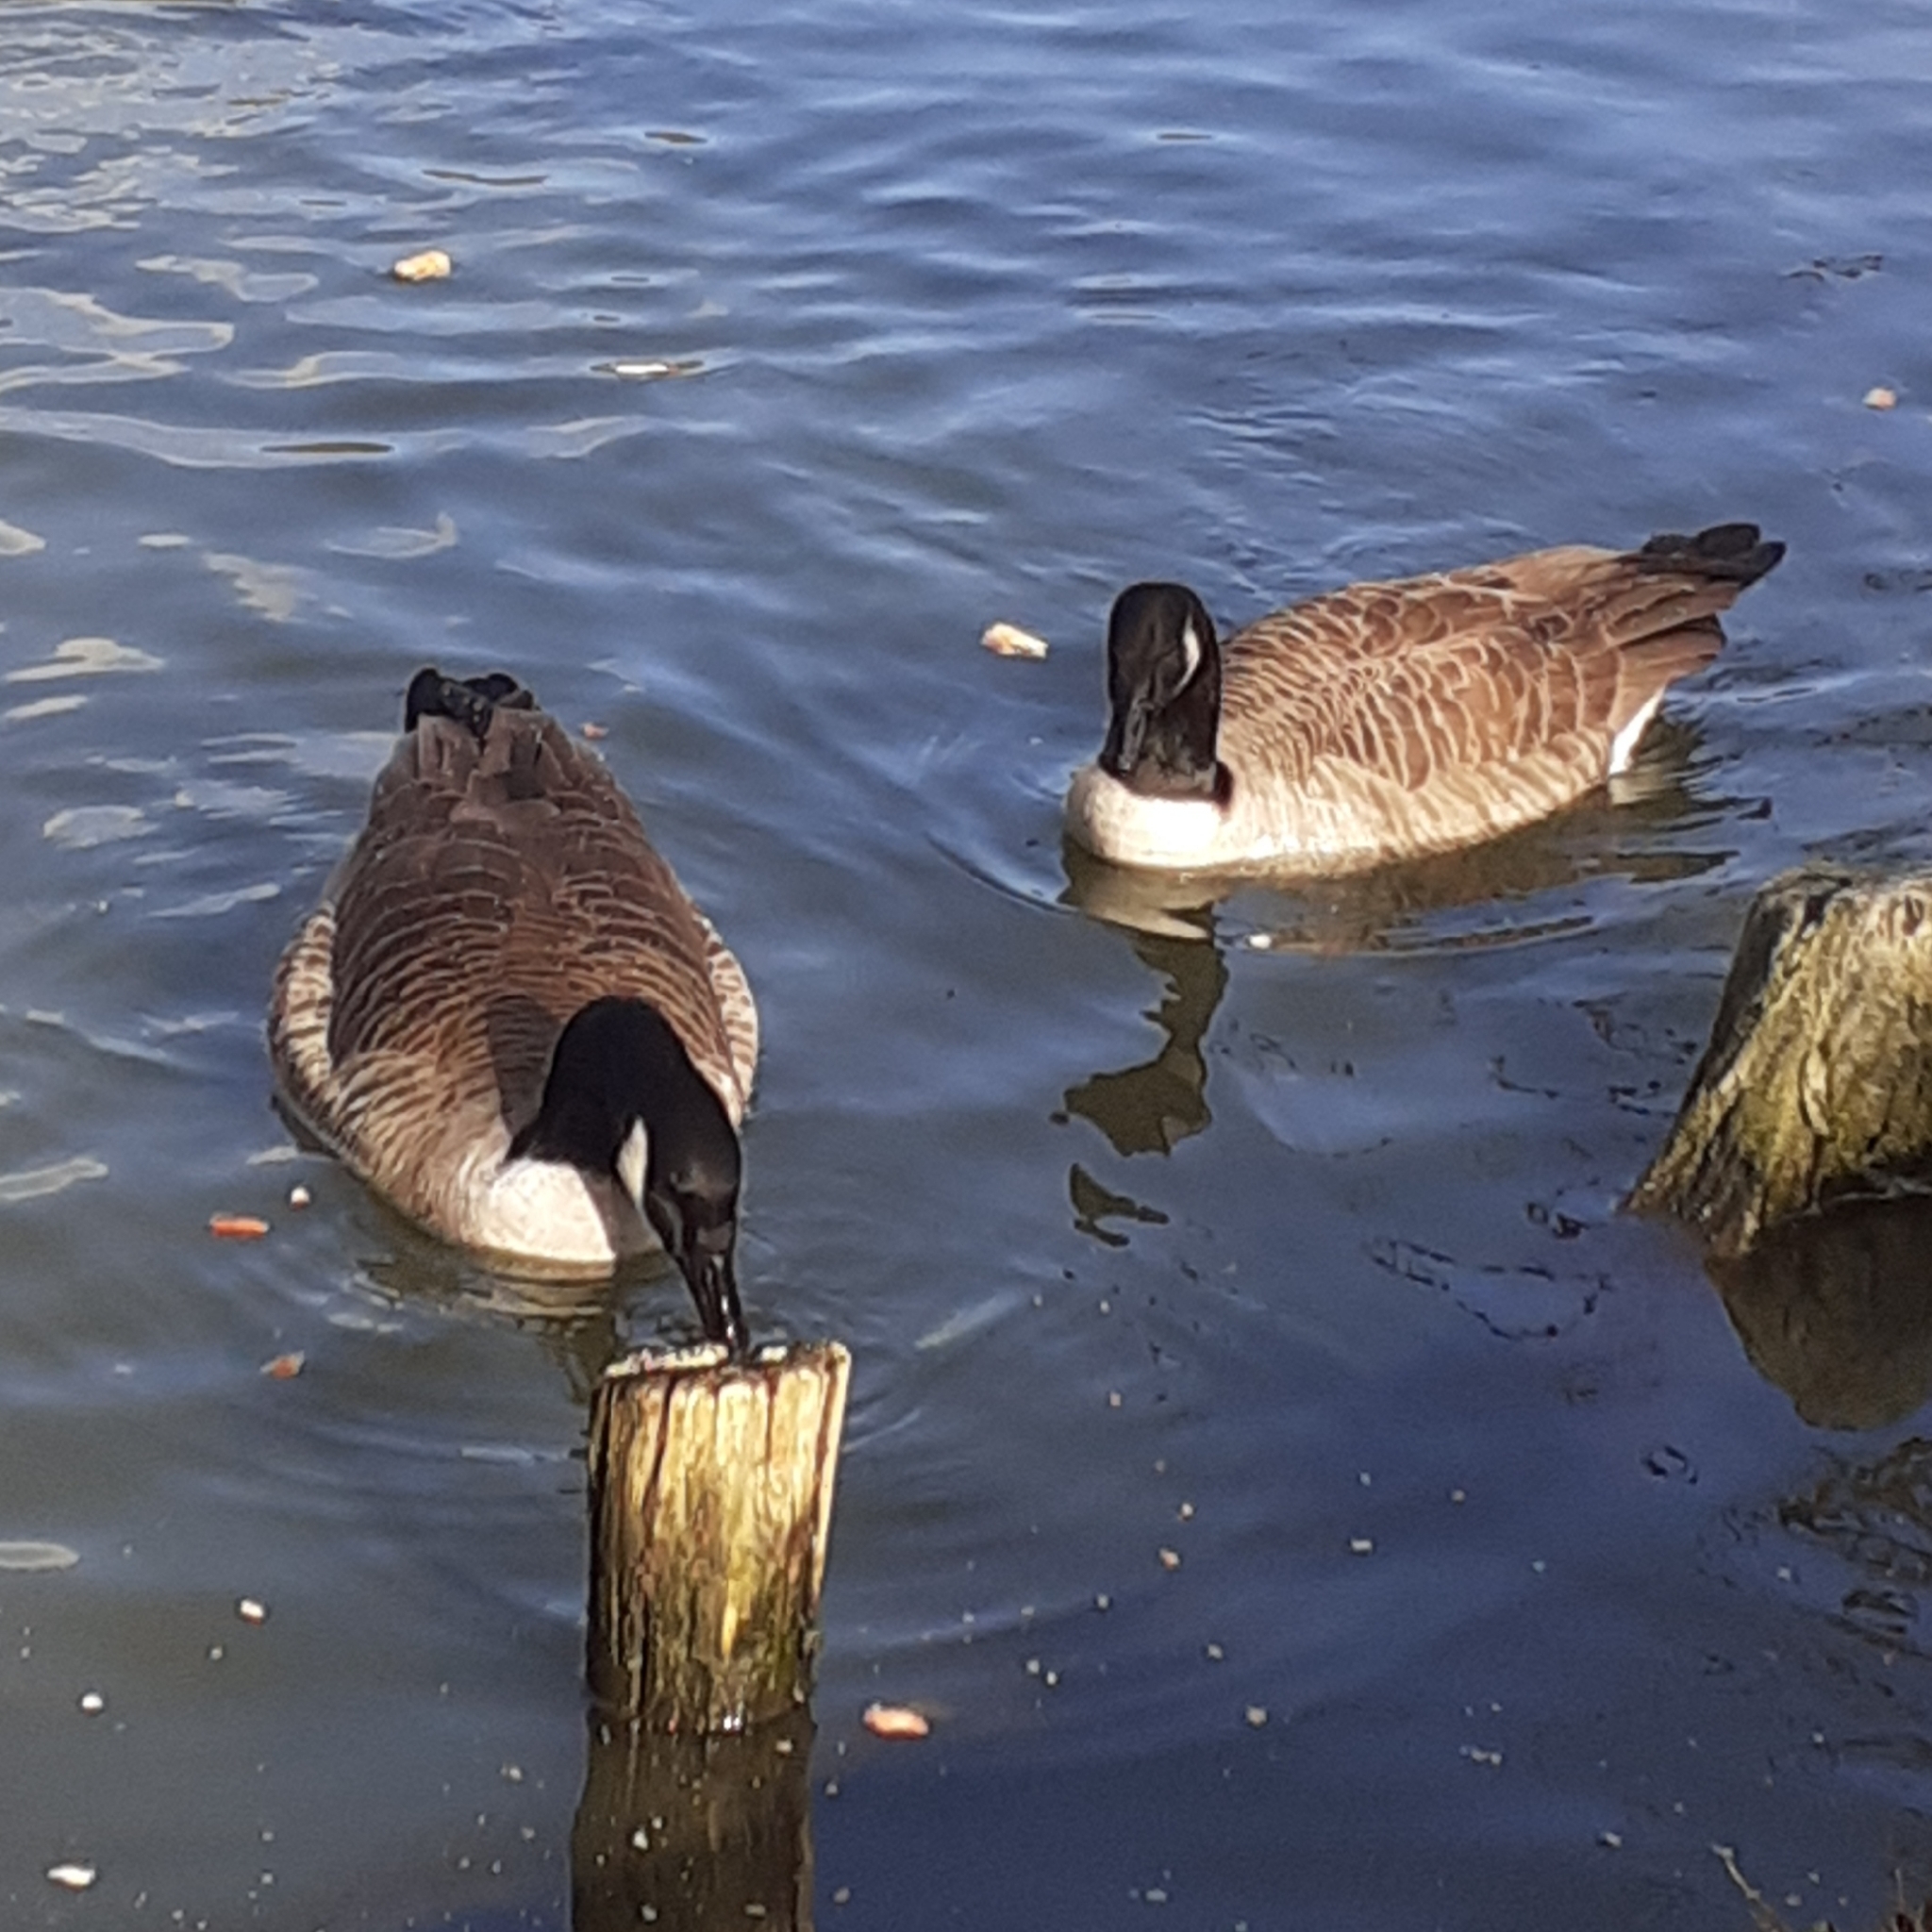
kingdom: Animalia
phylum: Chordata
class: Aves
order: Anseriformes
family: Anatidae
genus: Branta
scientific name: Branta canadensis
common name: Canada goose
